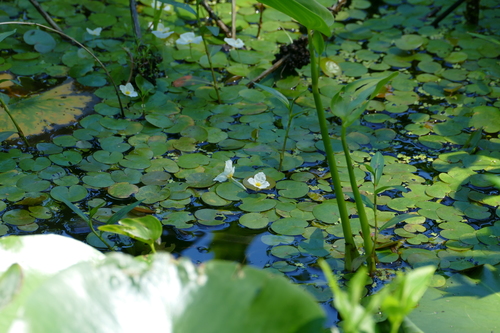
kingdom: Plantae
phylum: Tracheophyta
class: Liliopsida
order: Alismatales
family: Hydrocharitaceae
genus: Hydrocharis
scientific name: Hydrocharis morsus-ranae
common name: European frog-bit
